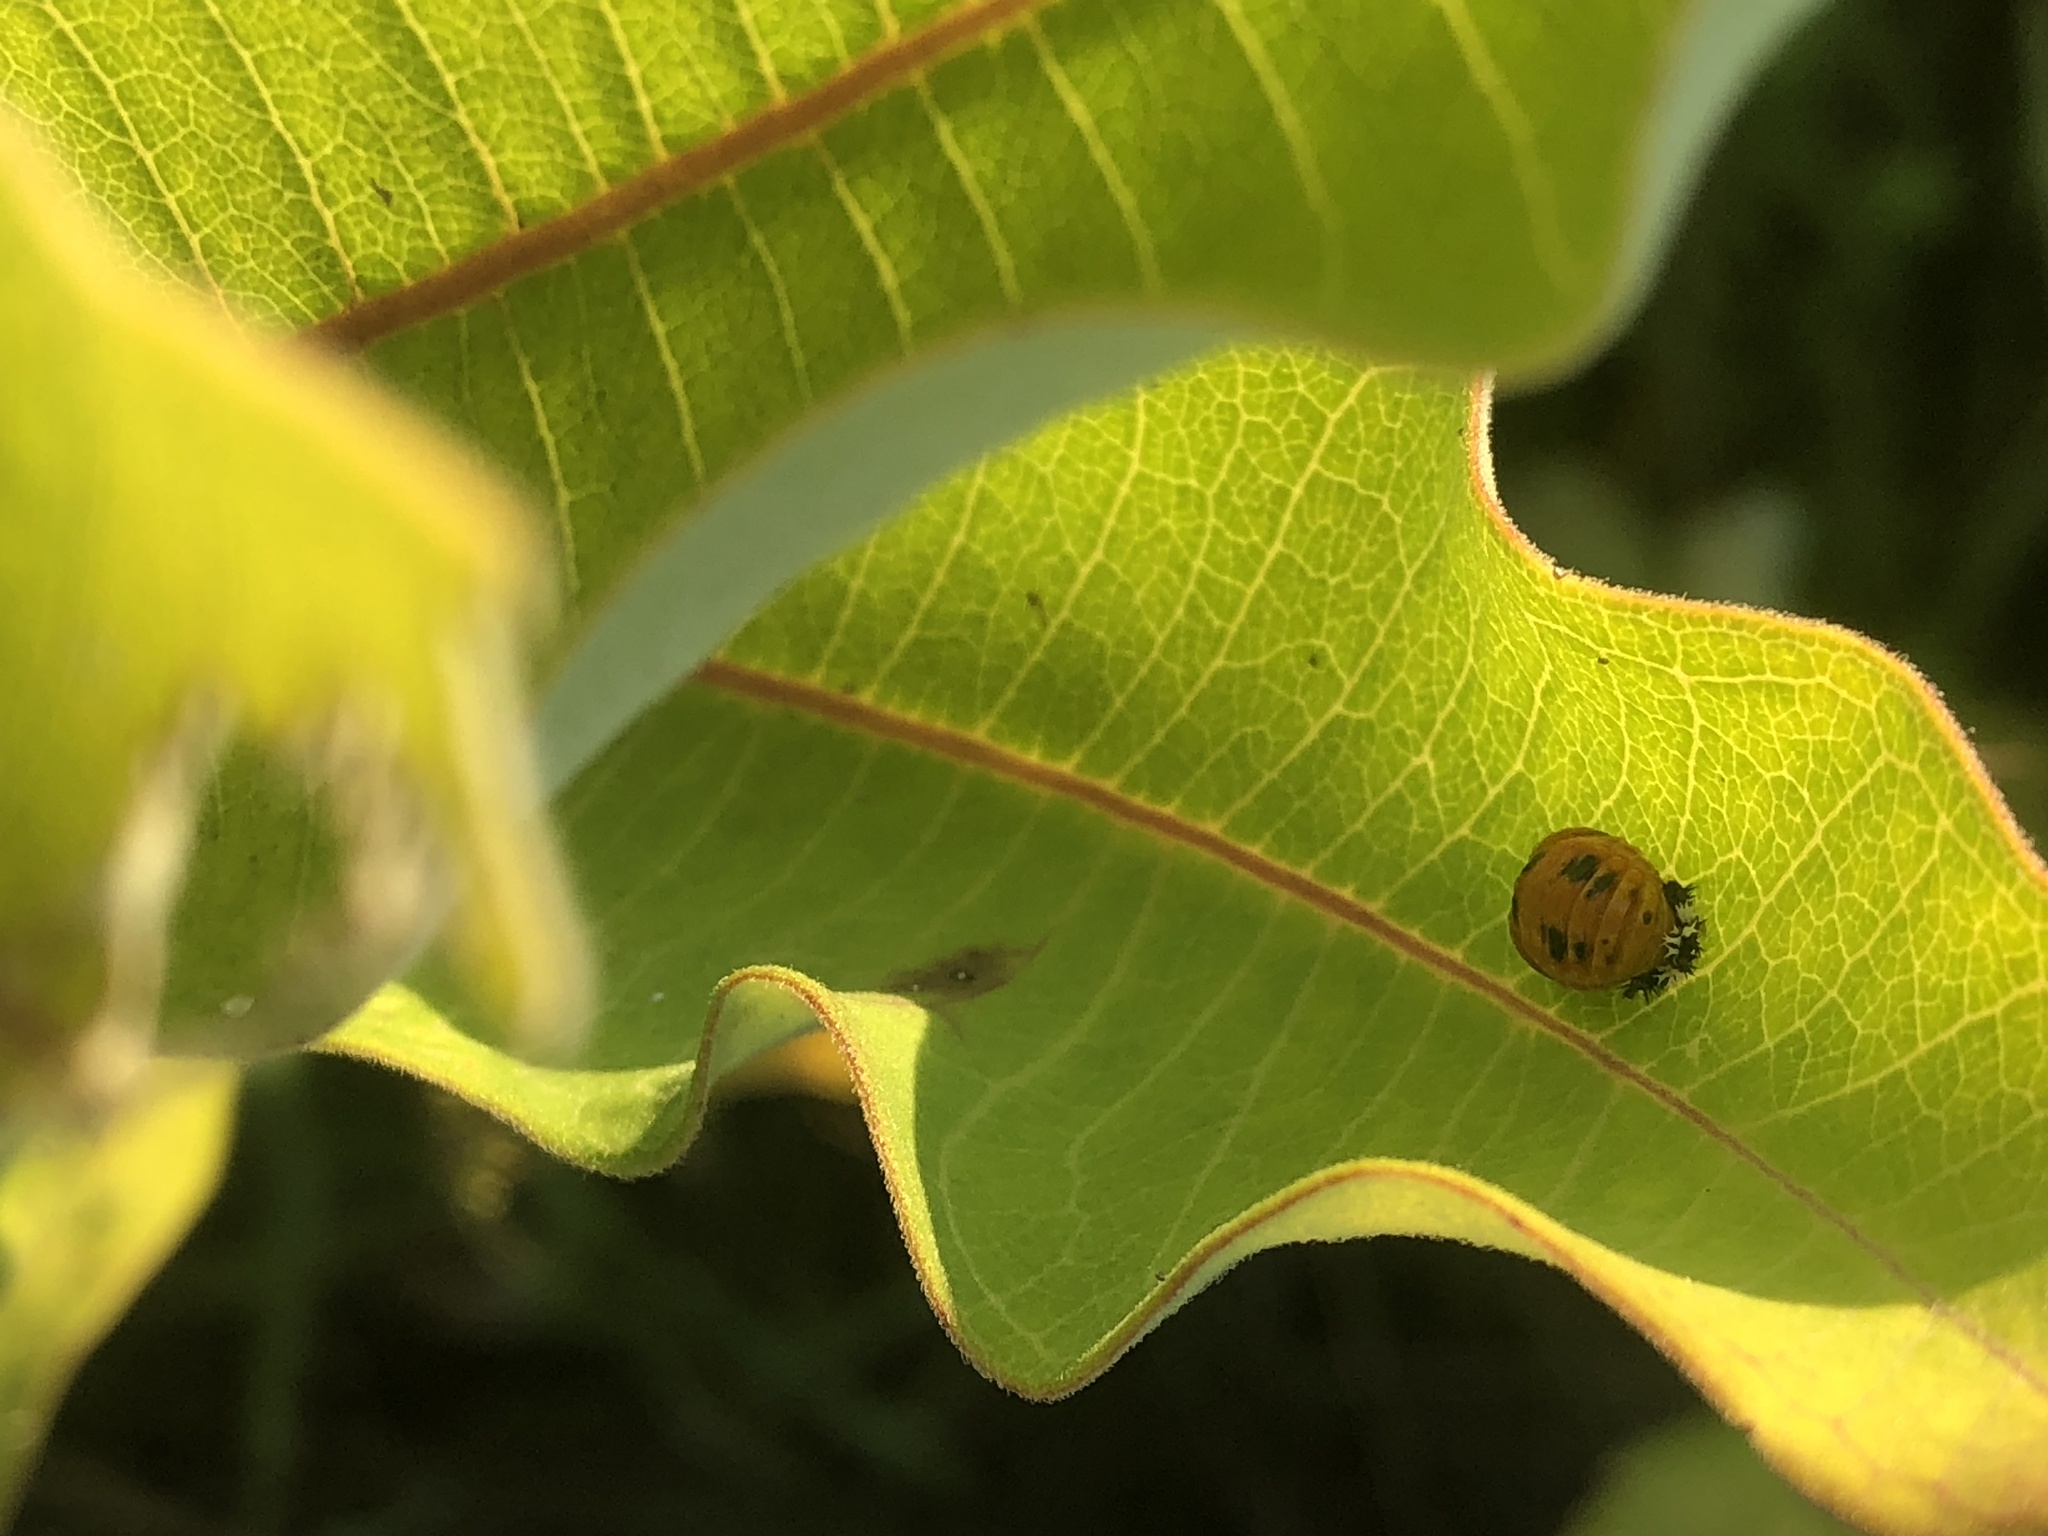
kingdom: Animalia
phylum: Arthropoda
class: Insecta
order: Coleoptera
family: Coccinellidae
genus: Harmonia
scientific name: Harmonia axyridis
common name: Harlequin ladybird
